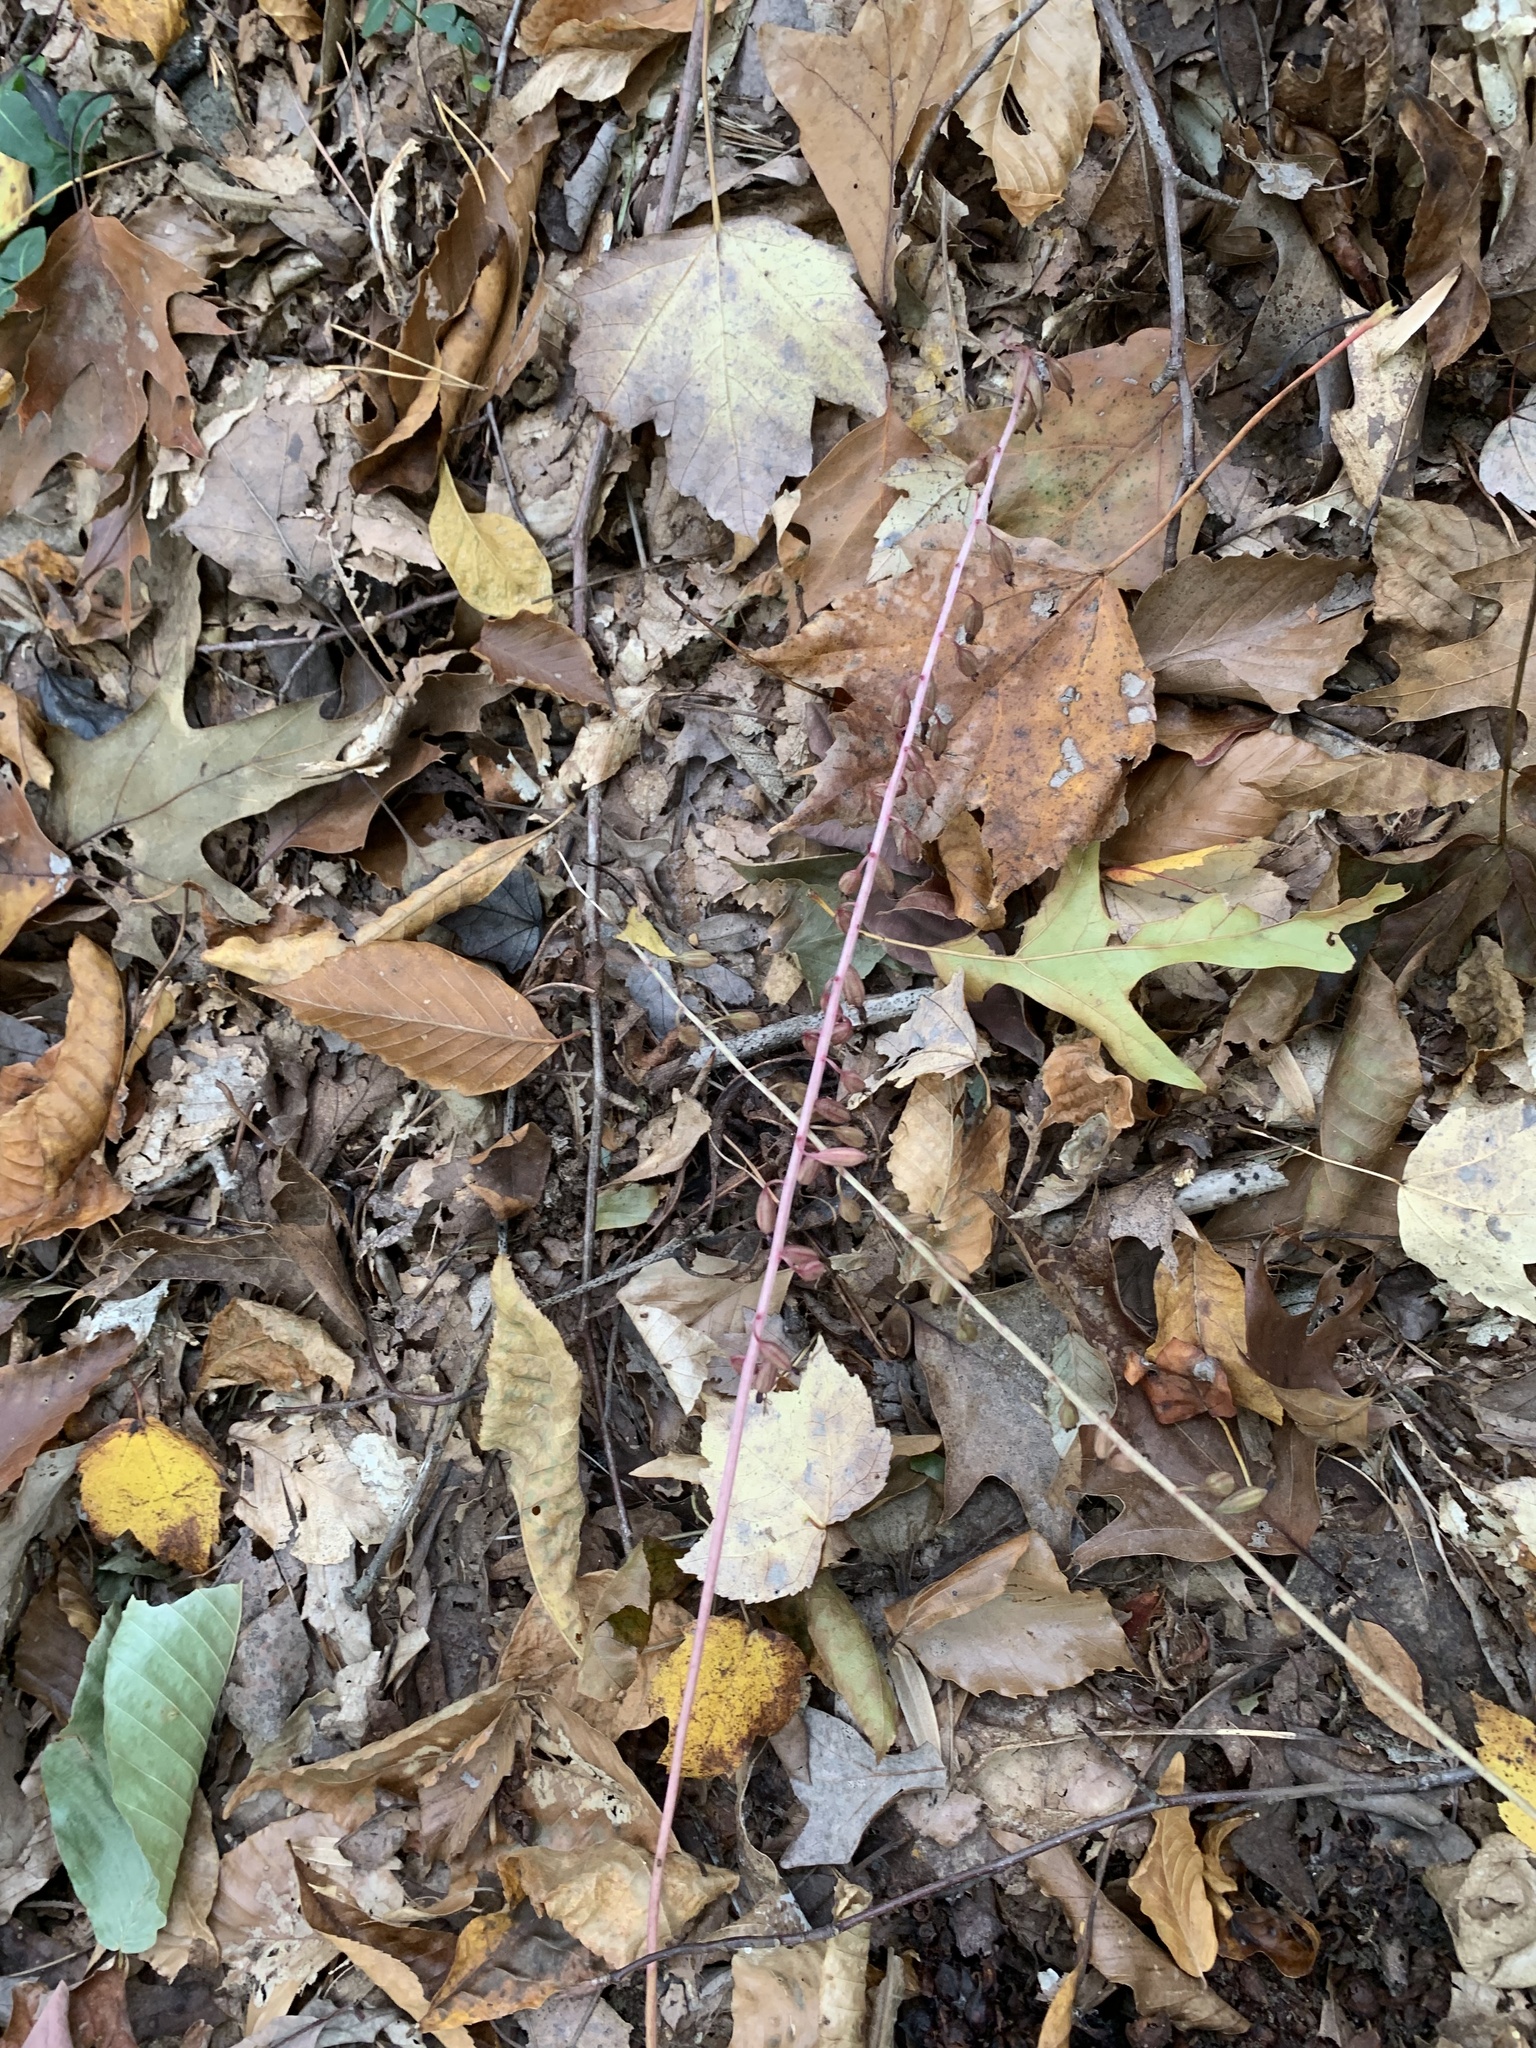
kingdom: Plantae
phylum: Tracheophyta
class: Liliopsida
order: Asparagales
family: Orchidaceae
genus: Tipularia
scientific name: Tipularia discolor
